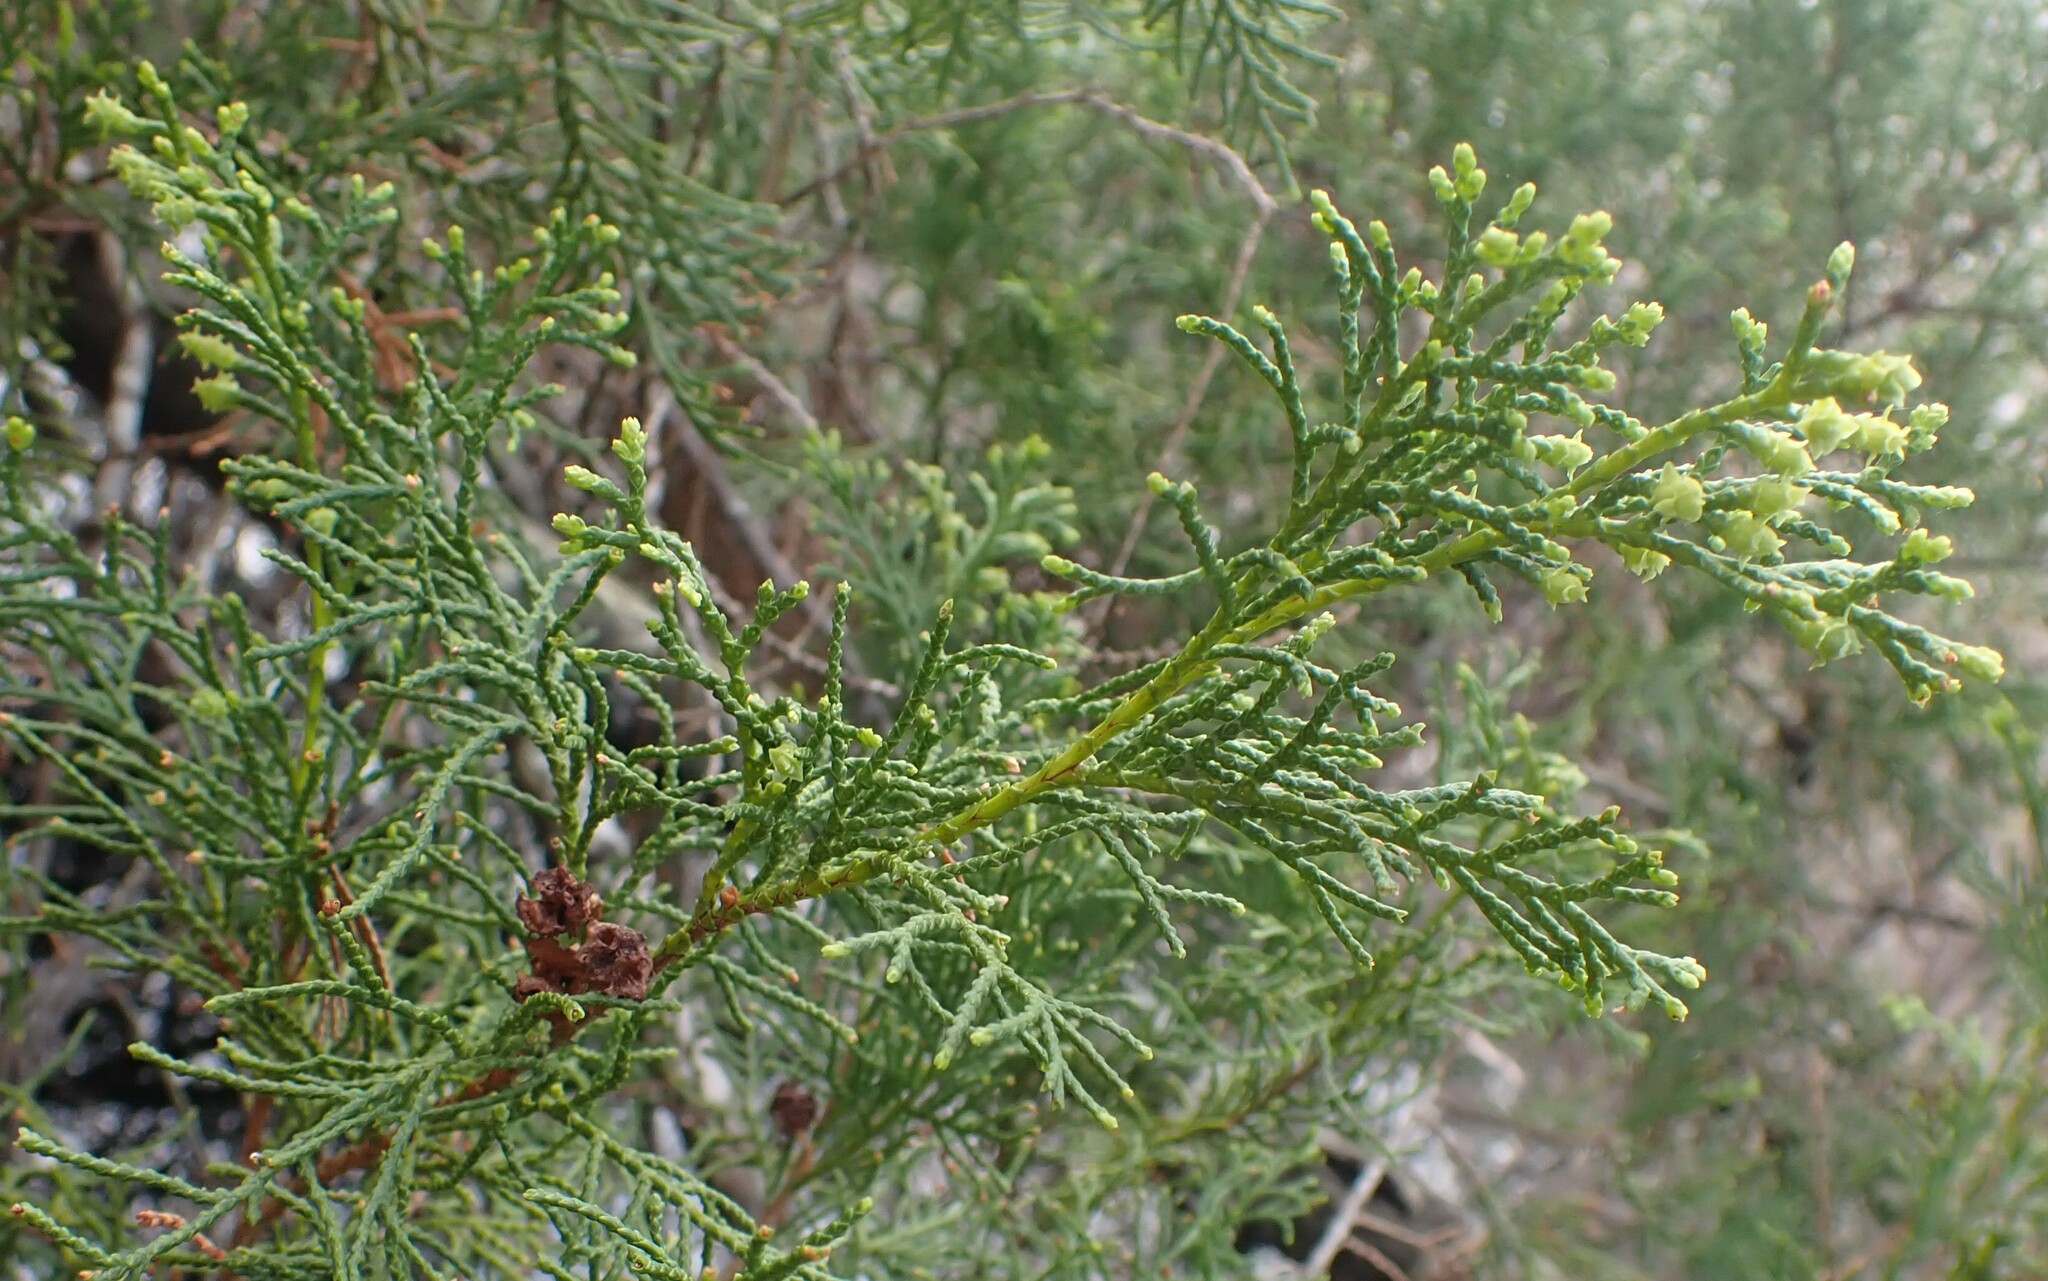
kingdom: Plantae
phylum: Tracheophyta
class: Pinopsida
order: Pinales
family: Cupressaceae
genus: Chamaecyparis
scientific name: Chamaecyparis thyoides
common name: Atlantic white cedar
